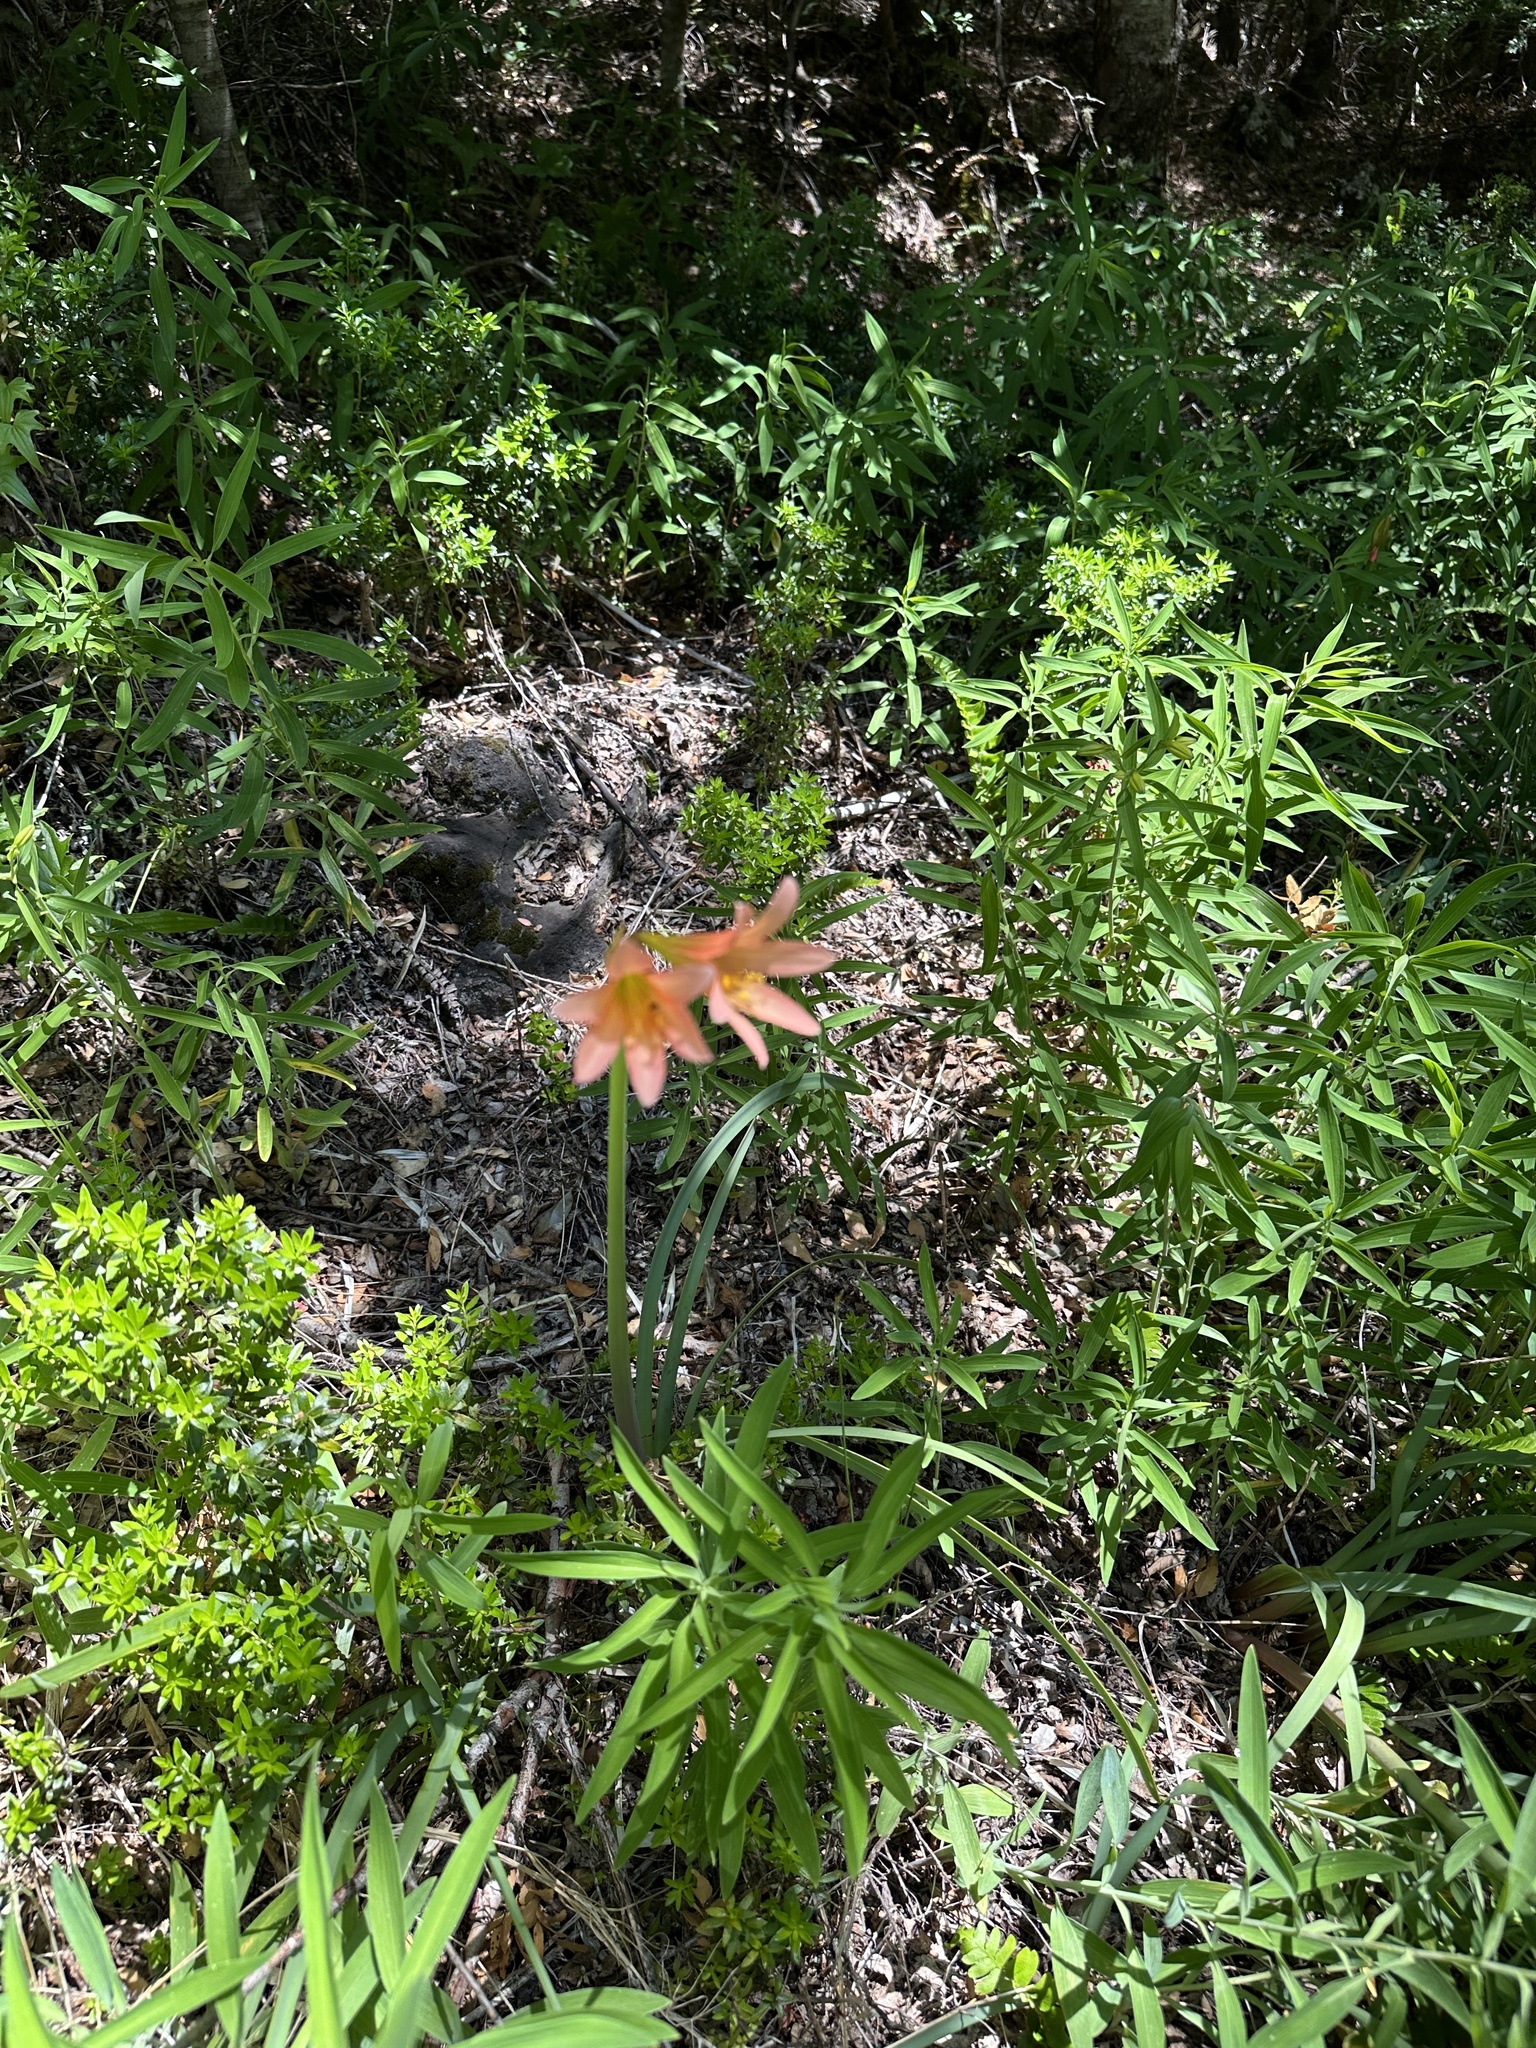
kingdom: Plantae
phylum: Tracheophyta
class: Liliopsida
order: Asparagales
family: Amaryllidaceae
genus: Zephyranthes
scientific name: Zephyranthes splendens
